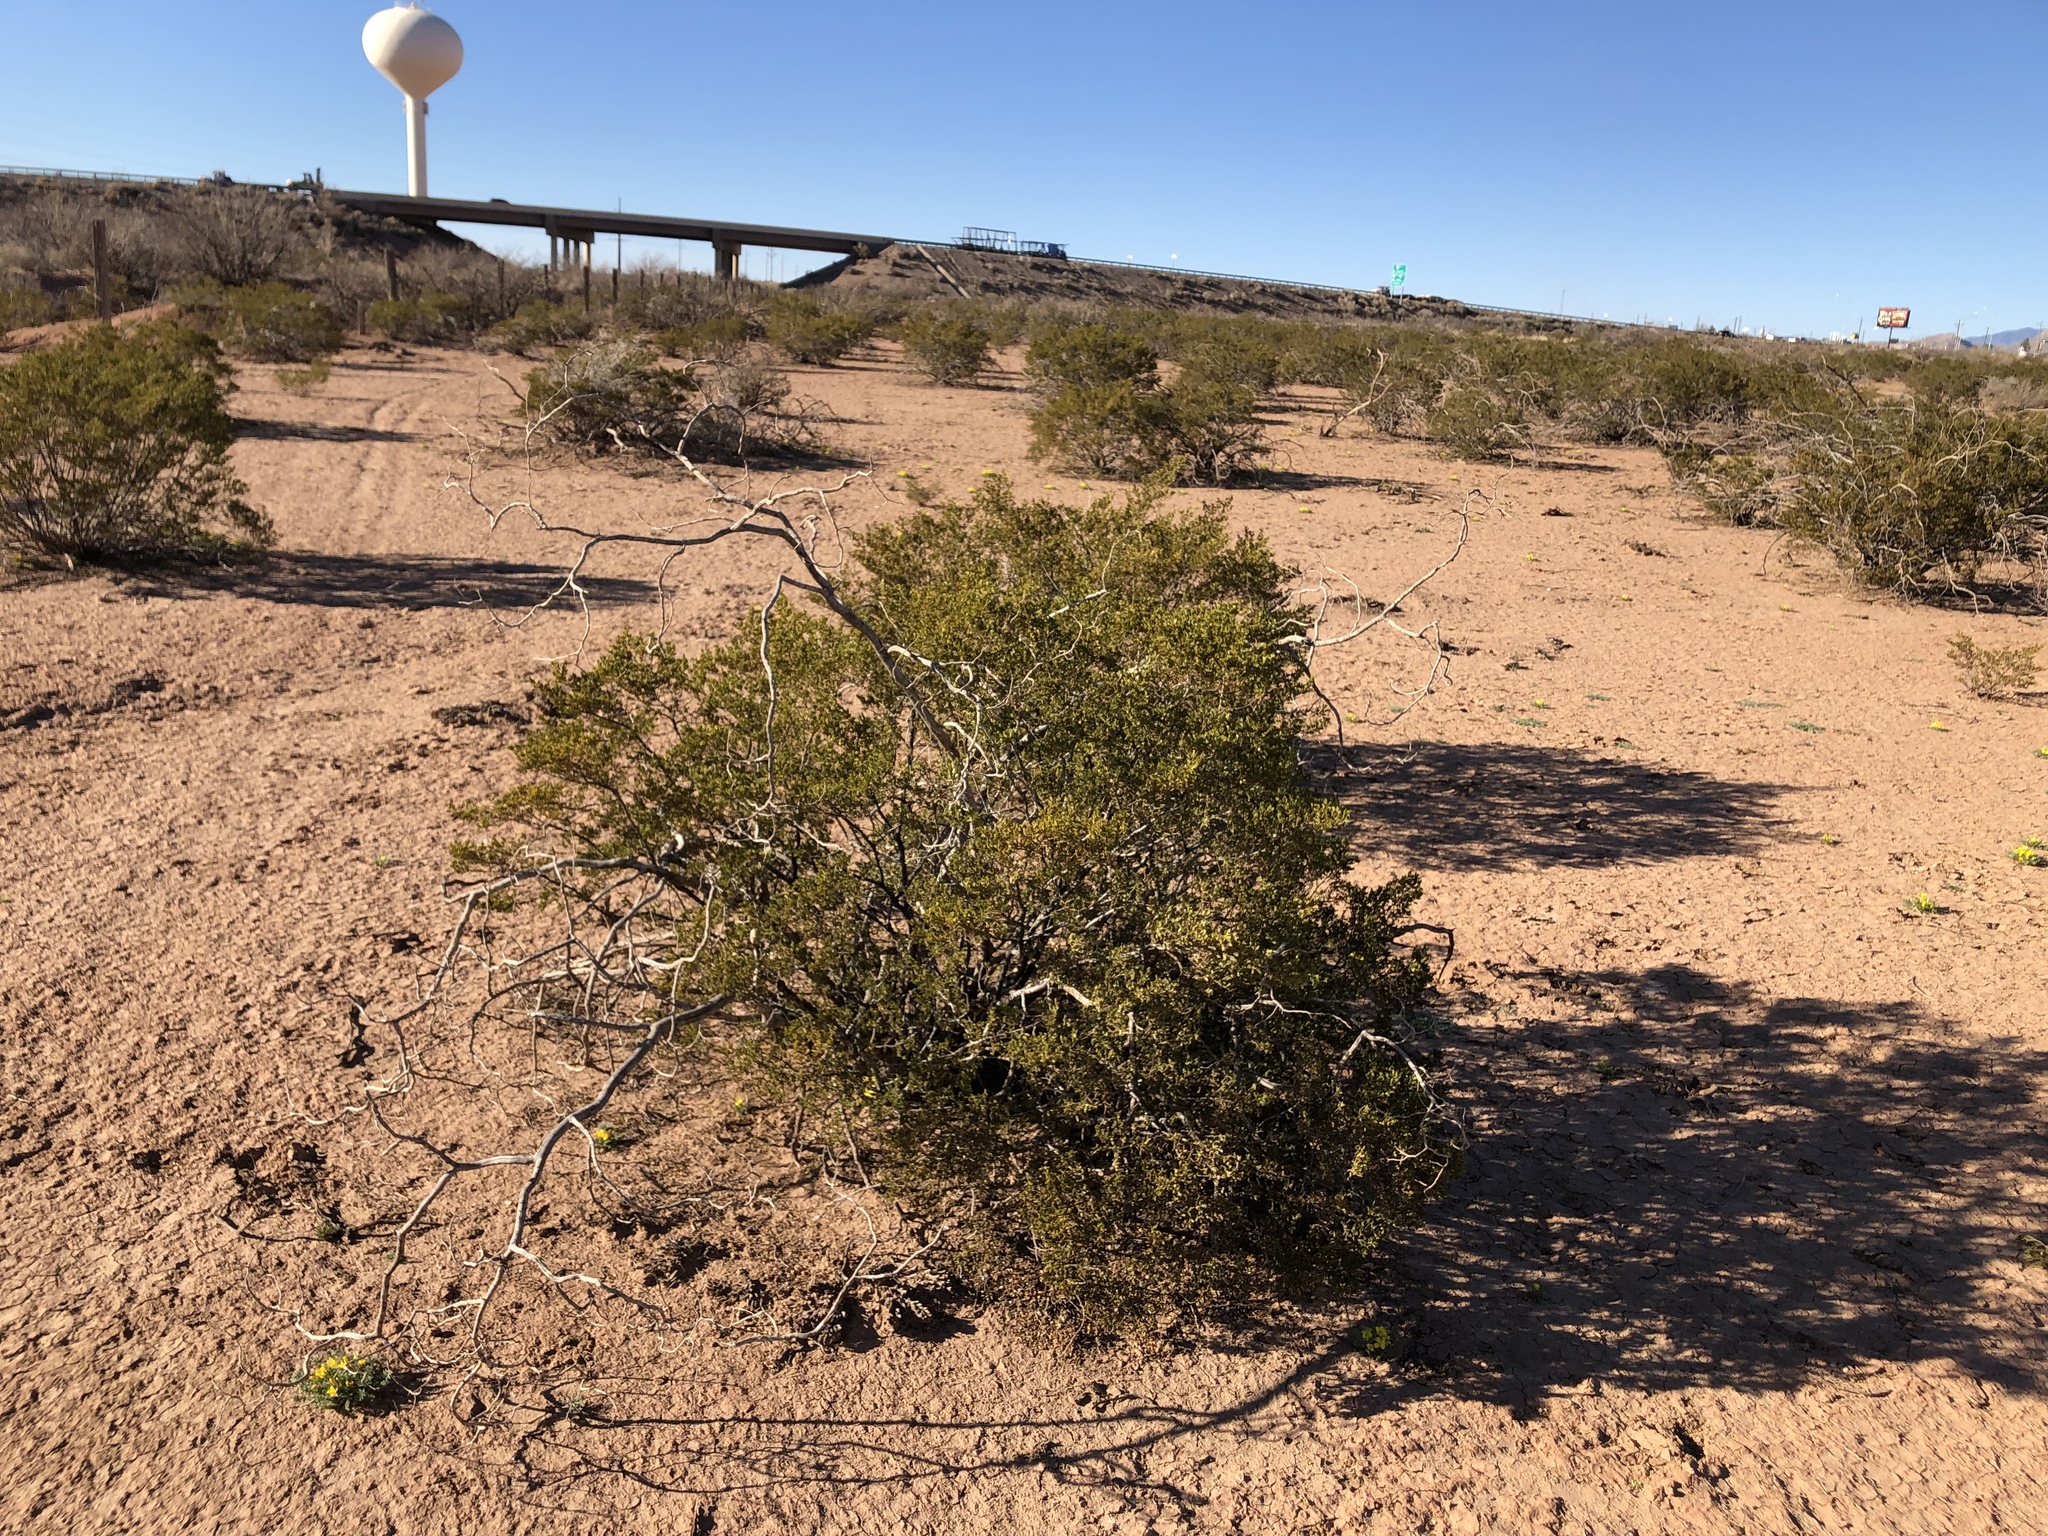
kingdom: Plantae
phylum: Tracheophyta
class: Magnoliopsida
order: Zygophyllales
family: Zygophyllaceae
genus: Larrea
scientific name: Larrea tridentata
